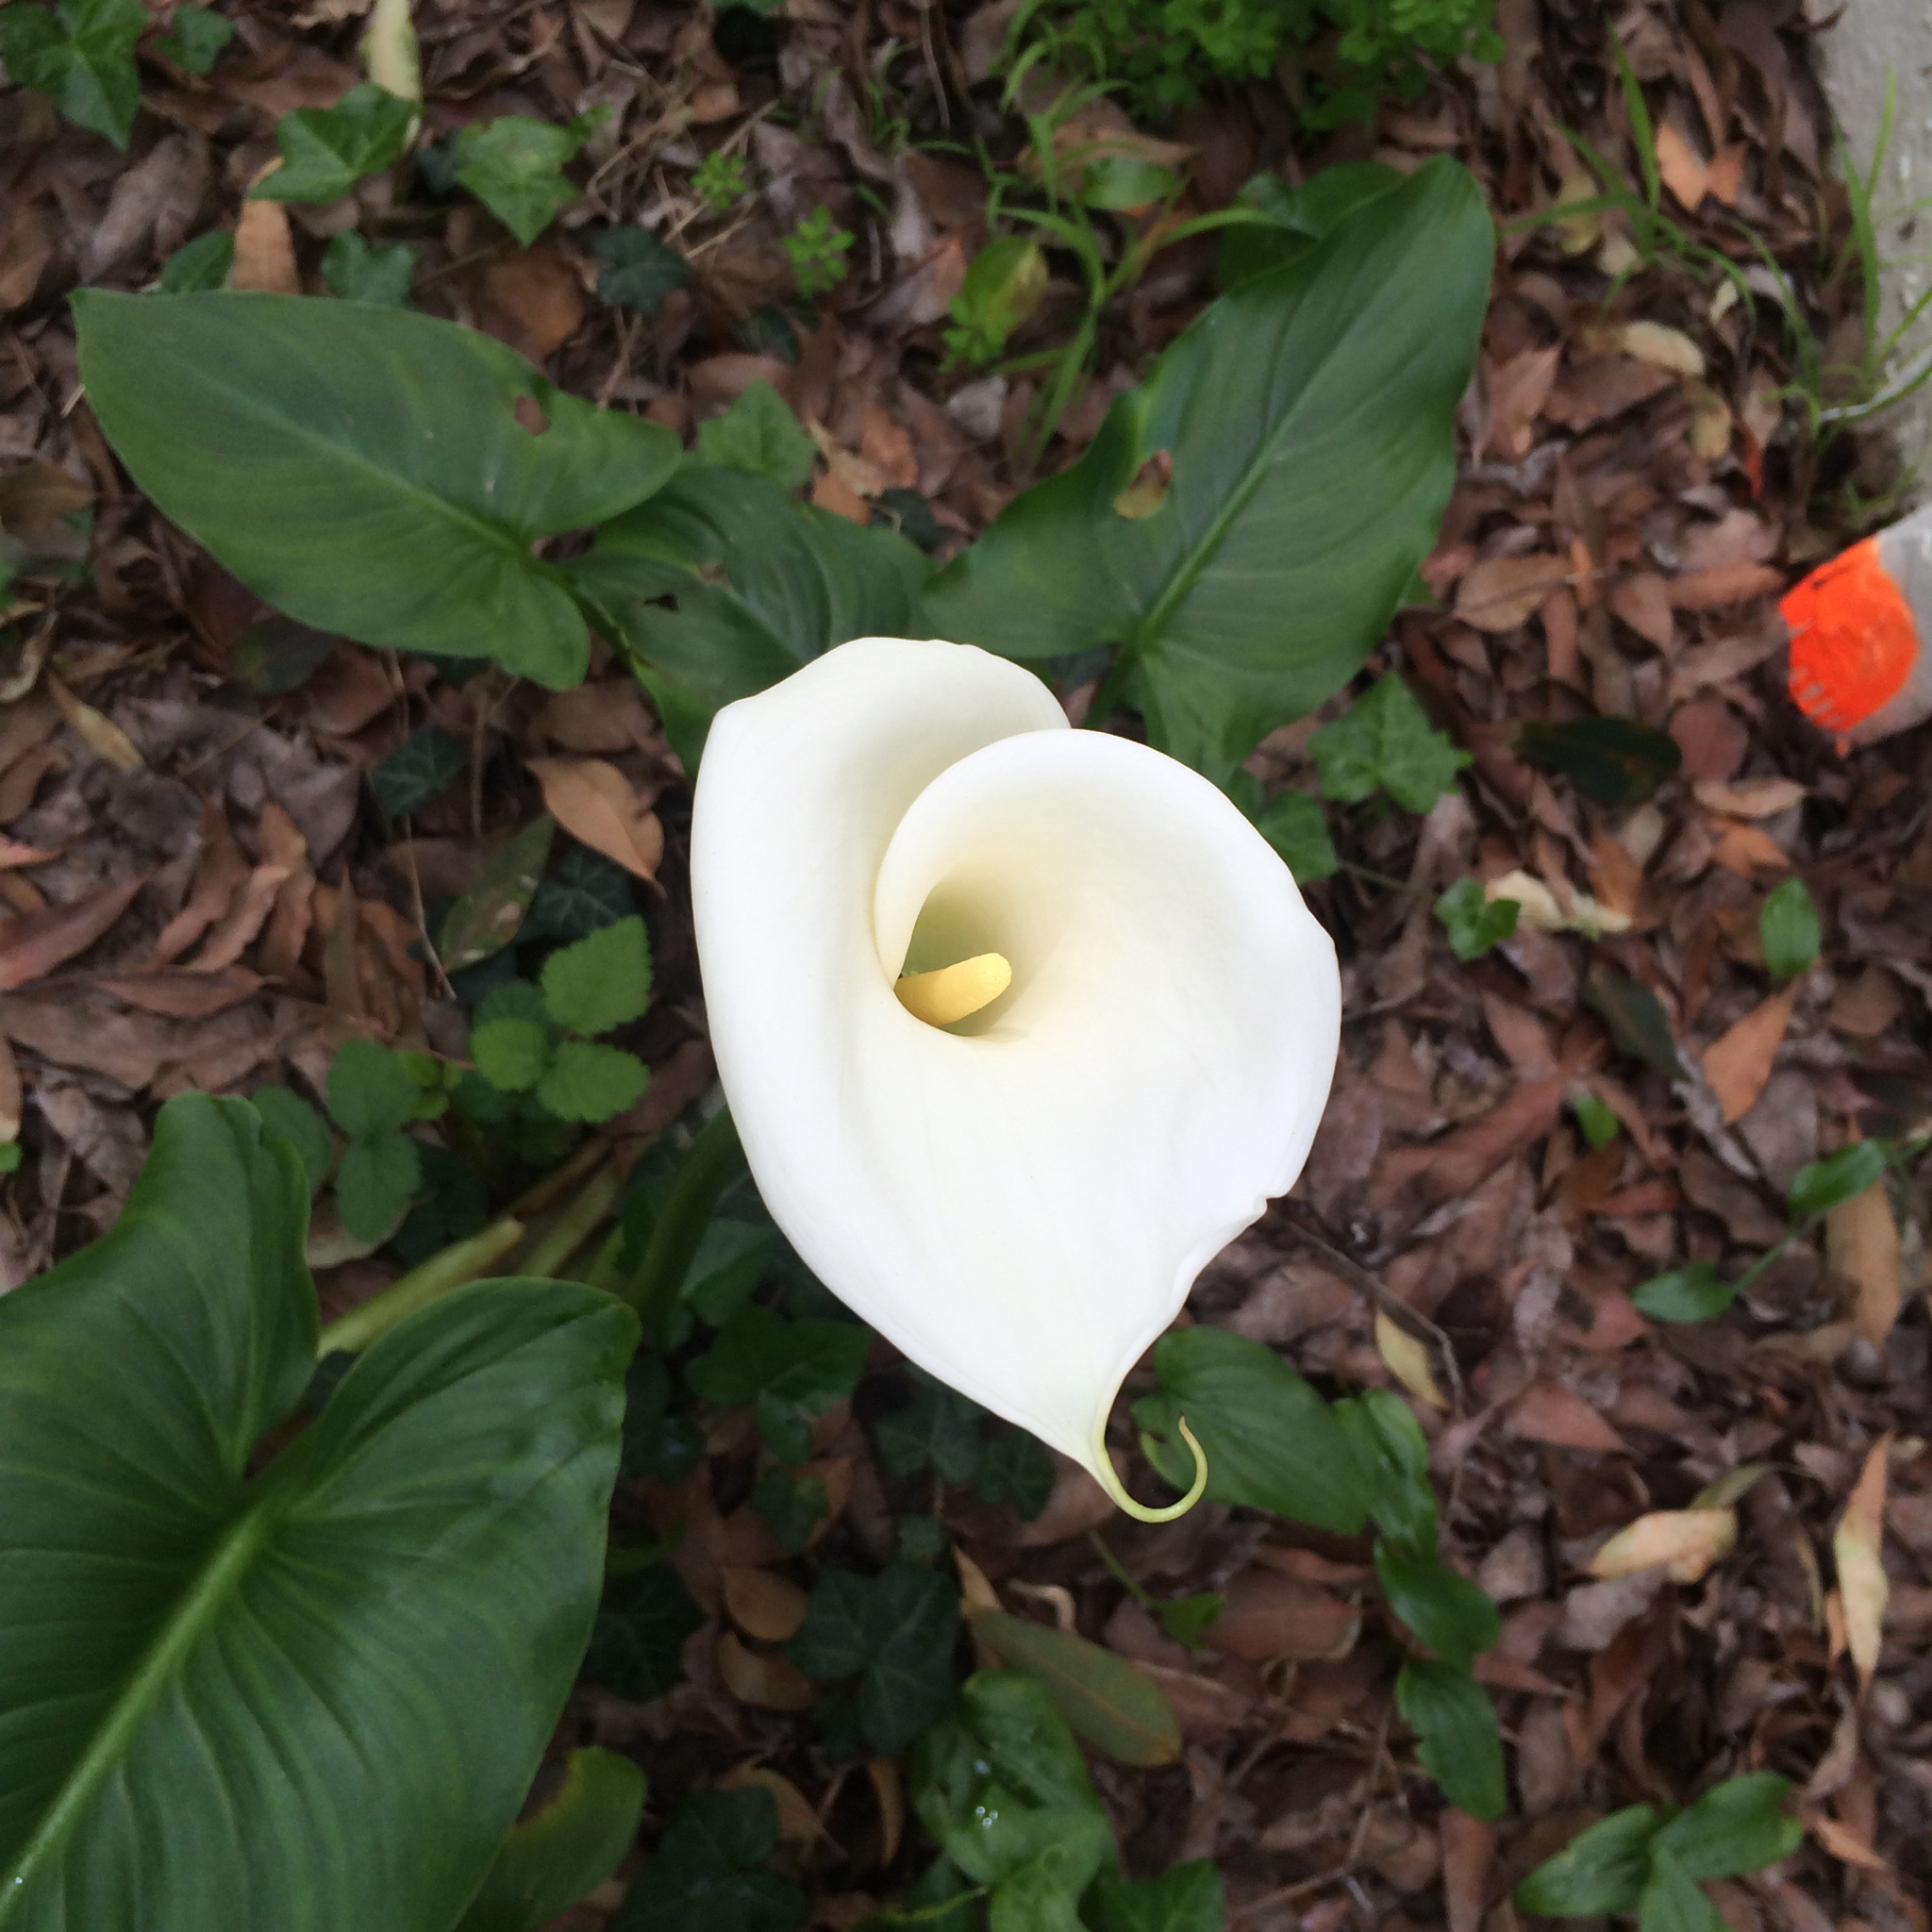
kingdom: Plantae
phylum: Tracheophyta
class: Liliopsida
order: Alismatales
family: Araceae
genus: Zantedeschia
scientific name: Zantedeschia aethiopica
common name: Altar-lily
